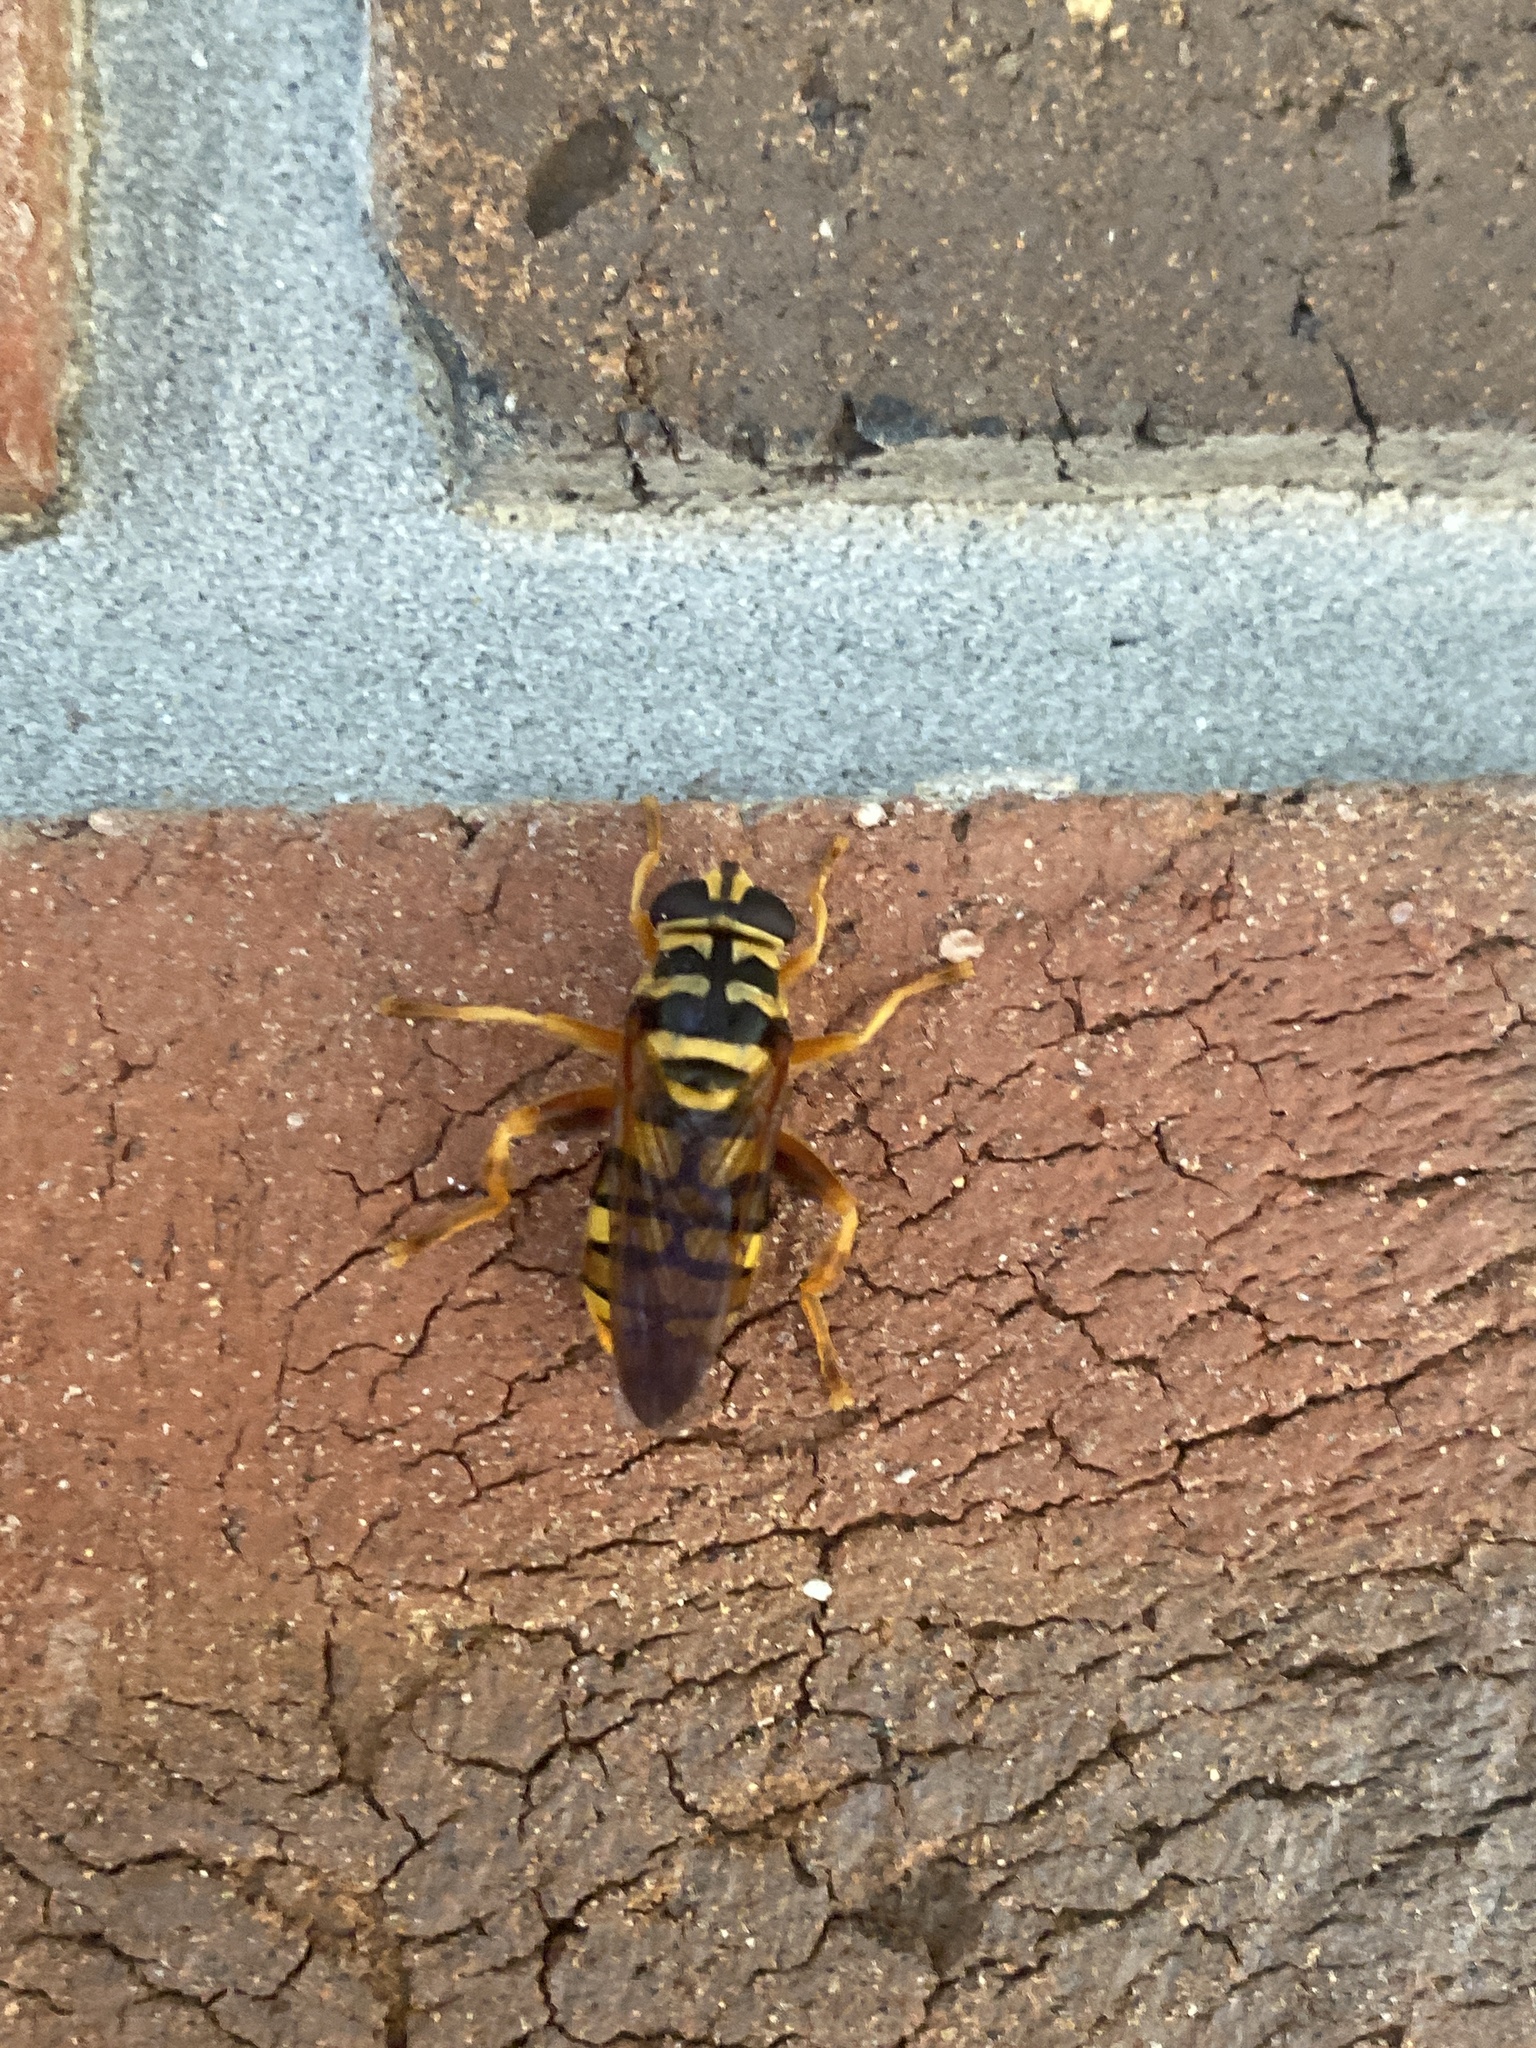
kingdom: Animalia
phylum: Arthropoda
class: Insecta
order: Diptera
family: Syrphidae
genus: Milesia
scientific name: Milesia virginiensis
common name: Virginia giant
